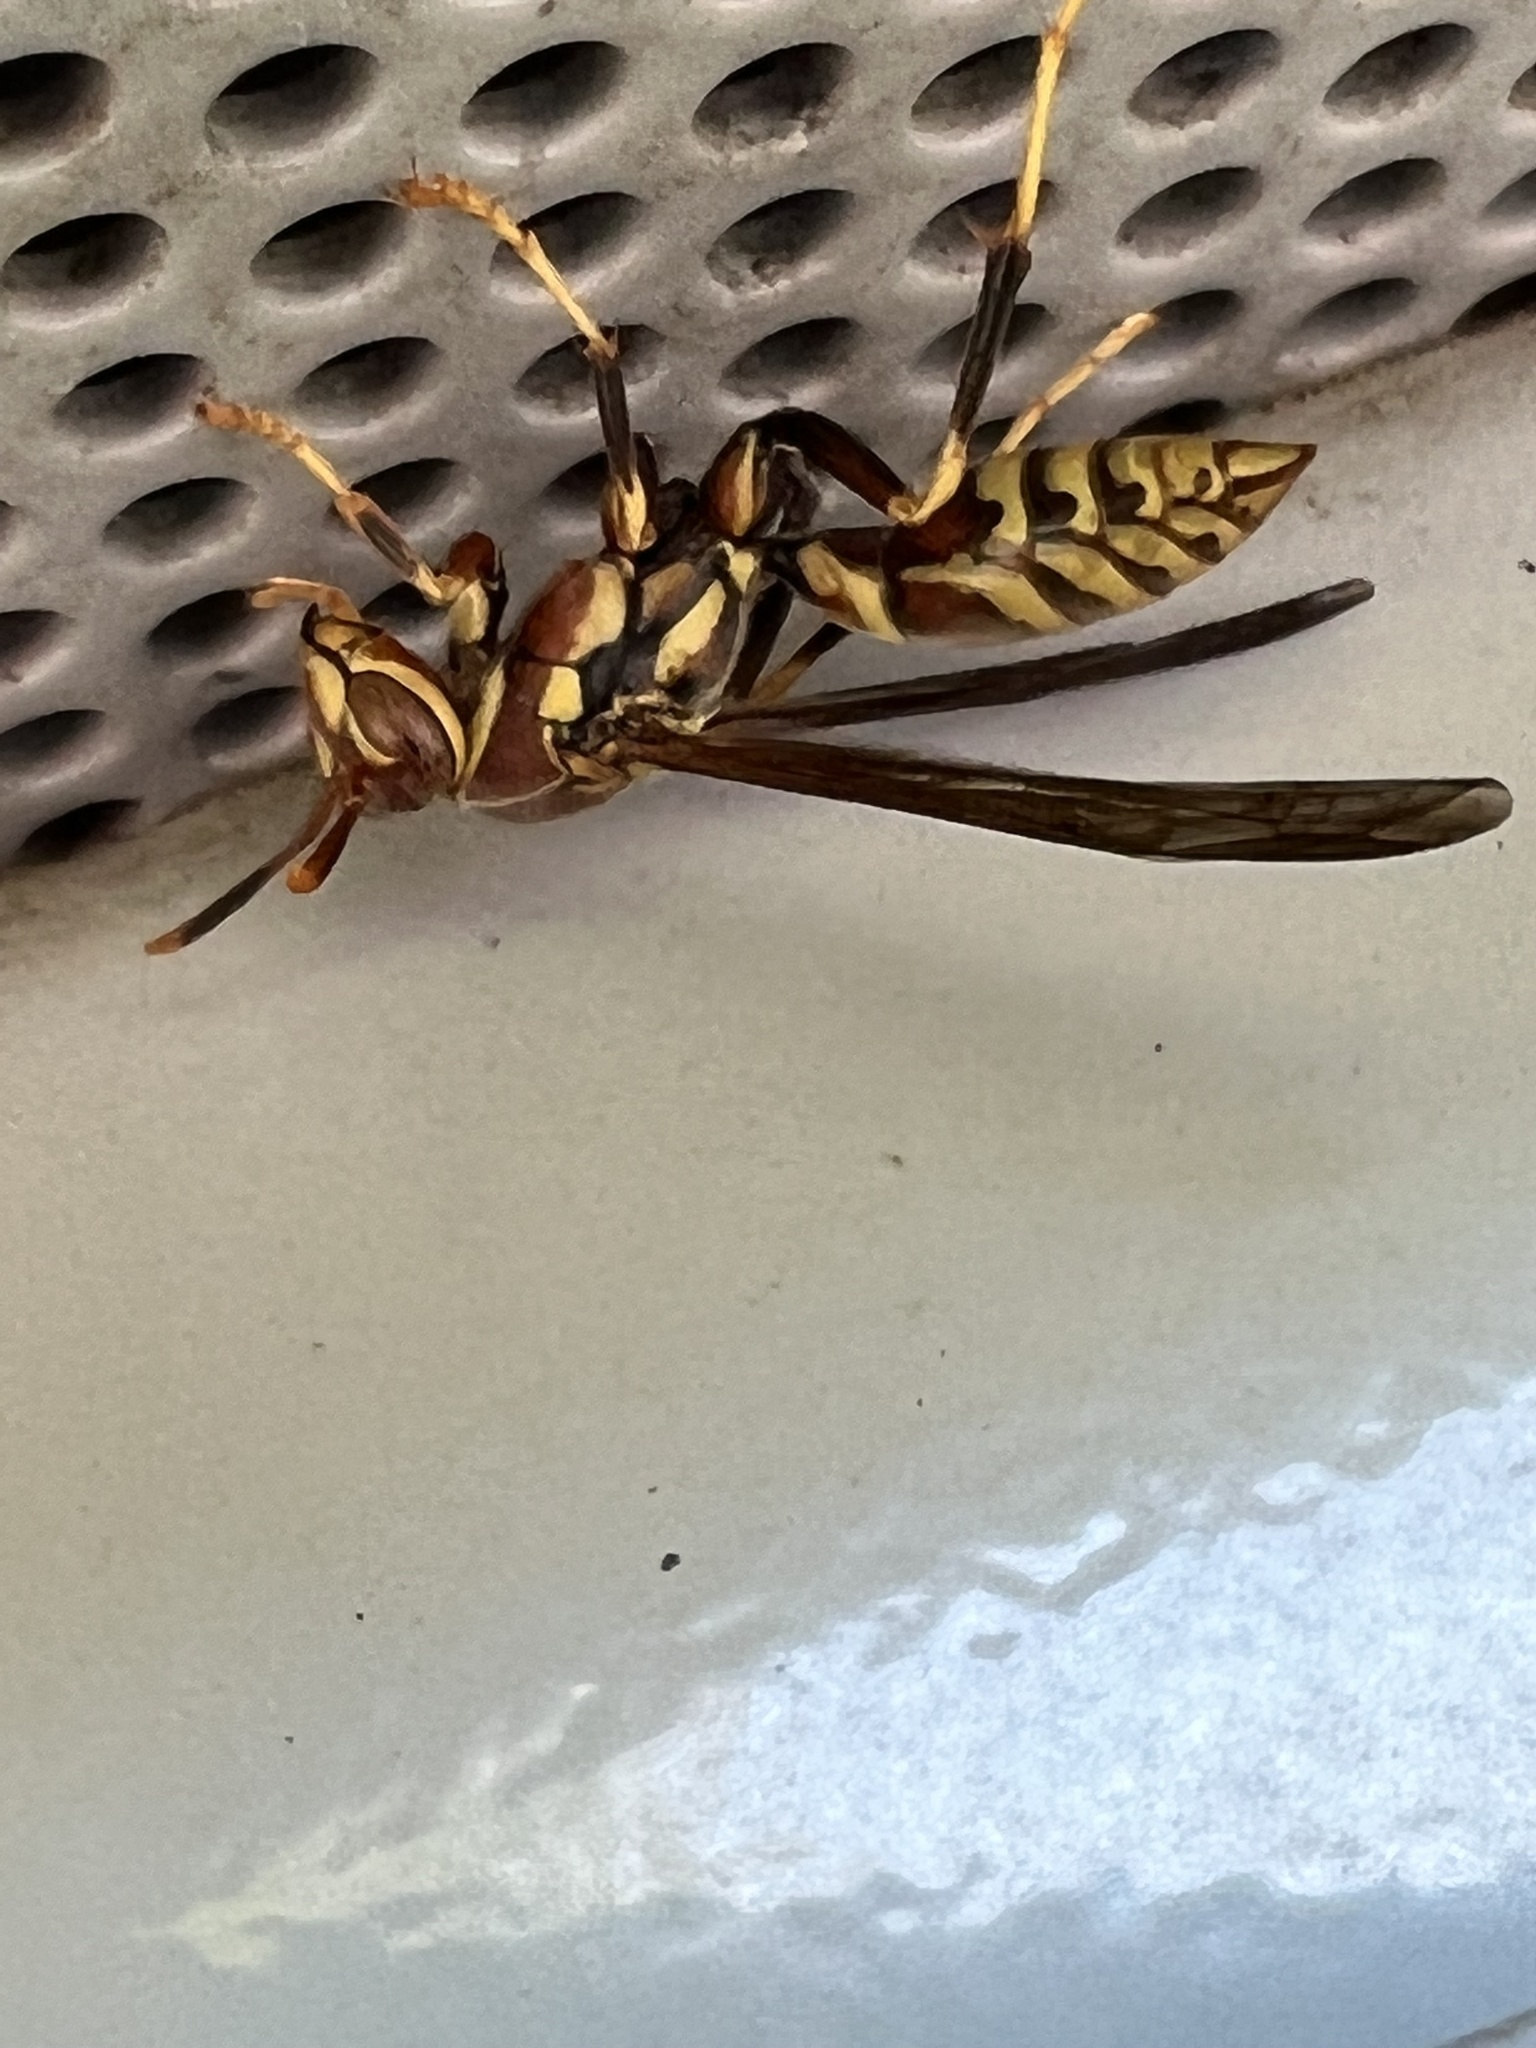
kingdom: Animalia
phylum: Arthropoda
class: Insecta
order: Hymenoptera
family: Eumenidae
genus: Polistes
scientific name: Polistes exclamans
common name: Paper wasp
